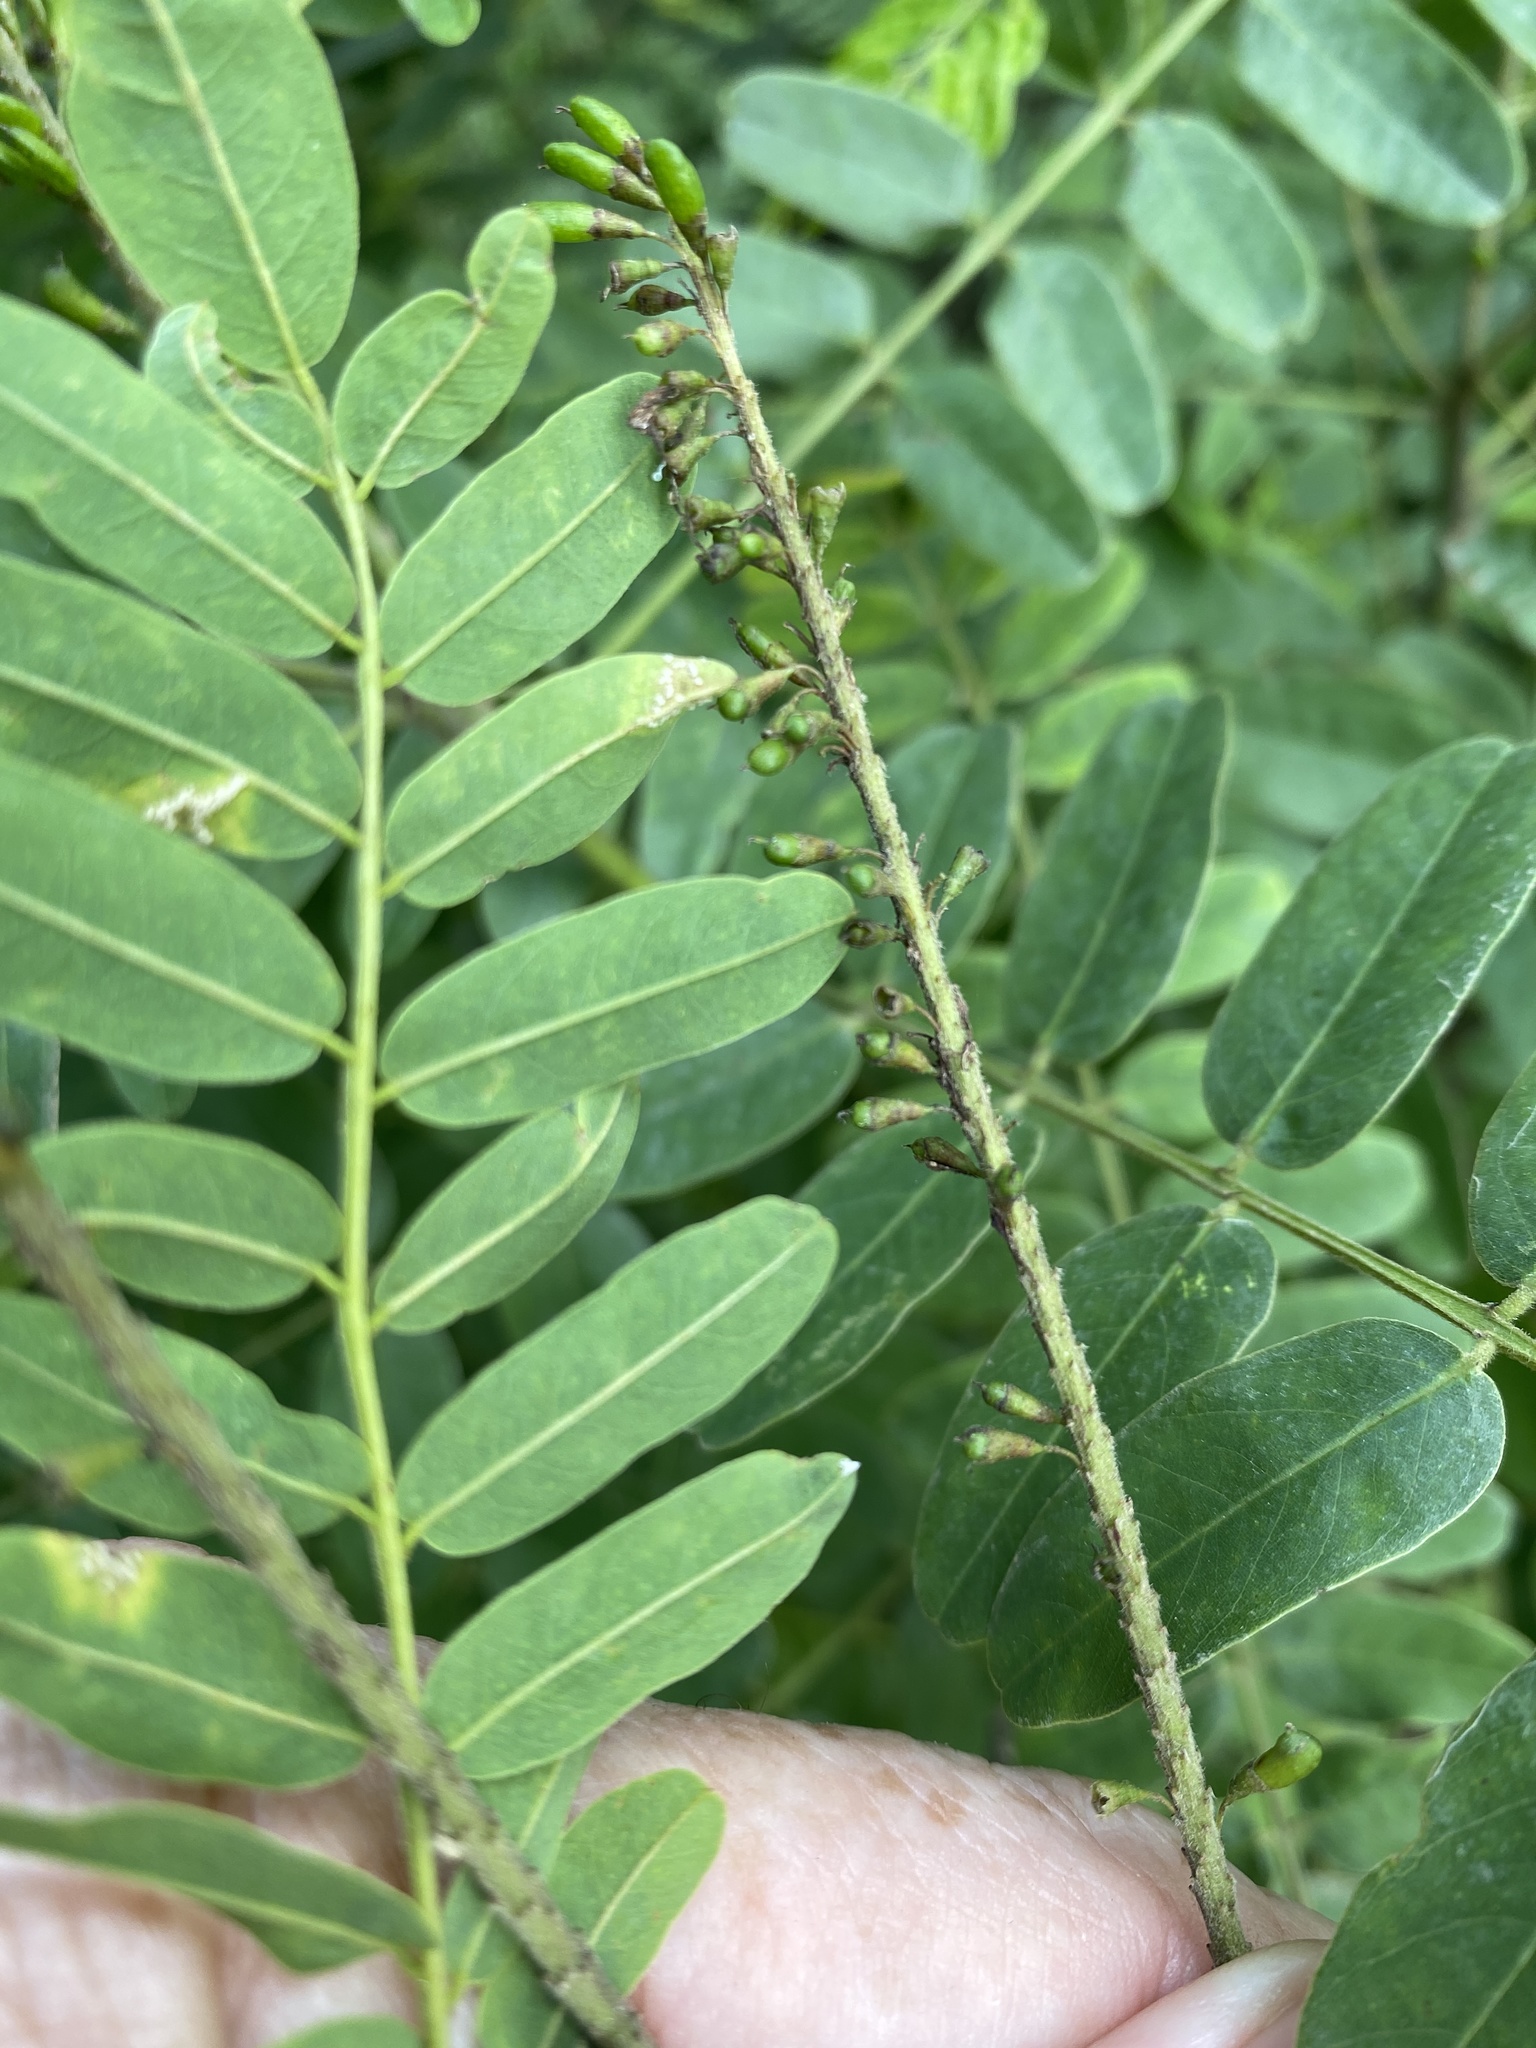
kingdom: Plantae
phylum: Tracheophyta
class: Magnoliopsida
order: Fabales
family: Fabaceae
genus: Amorpha
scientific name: Amorpha fruticosa
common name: False indigo
